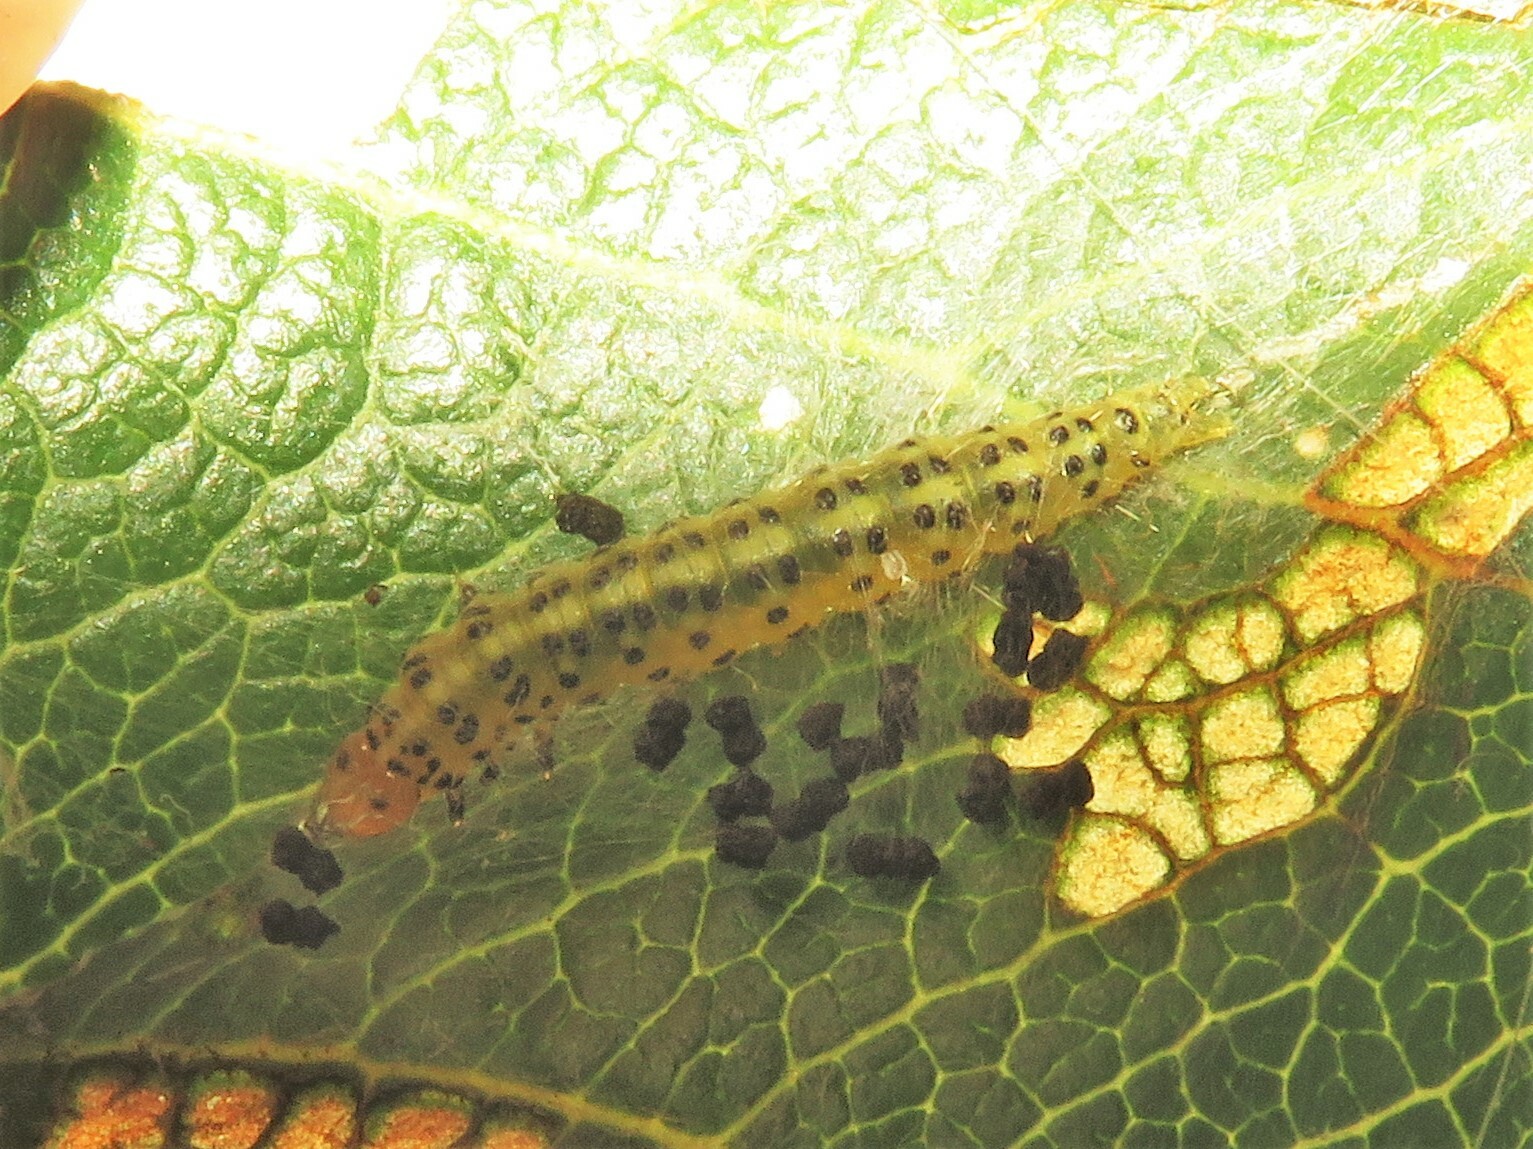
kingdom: Animalia
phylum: Arthropoda
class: Insecta
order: Lepidoptera
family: Choreutidae
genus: Choreutis
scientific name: Choreutis pariana
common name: Apple leaf skeletoniser
